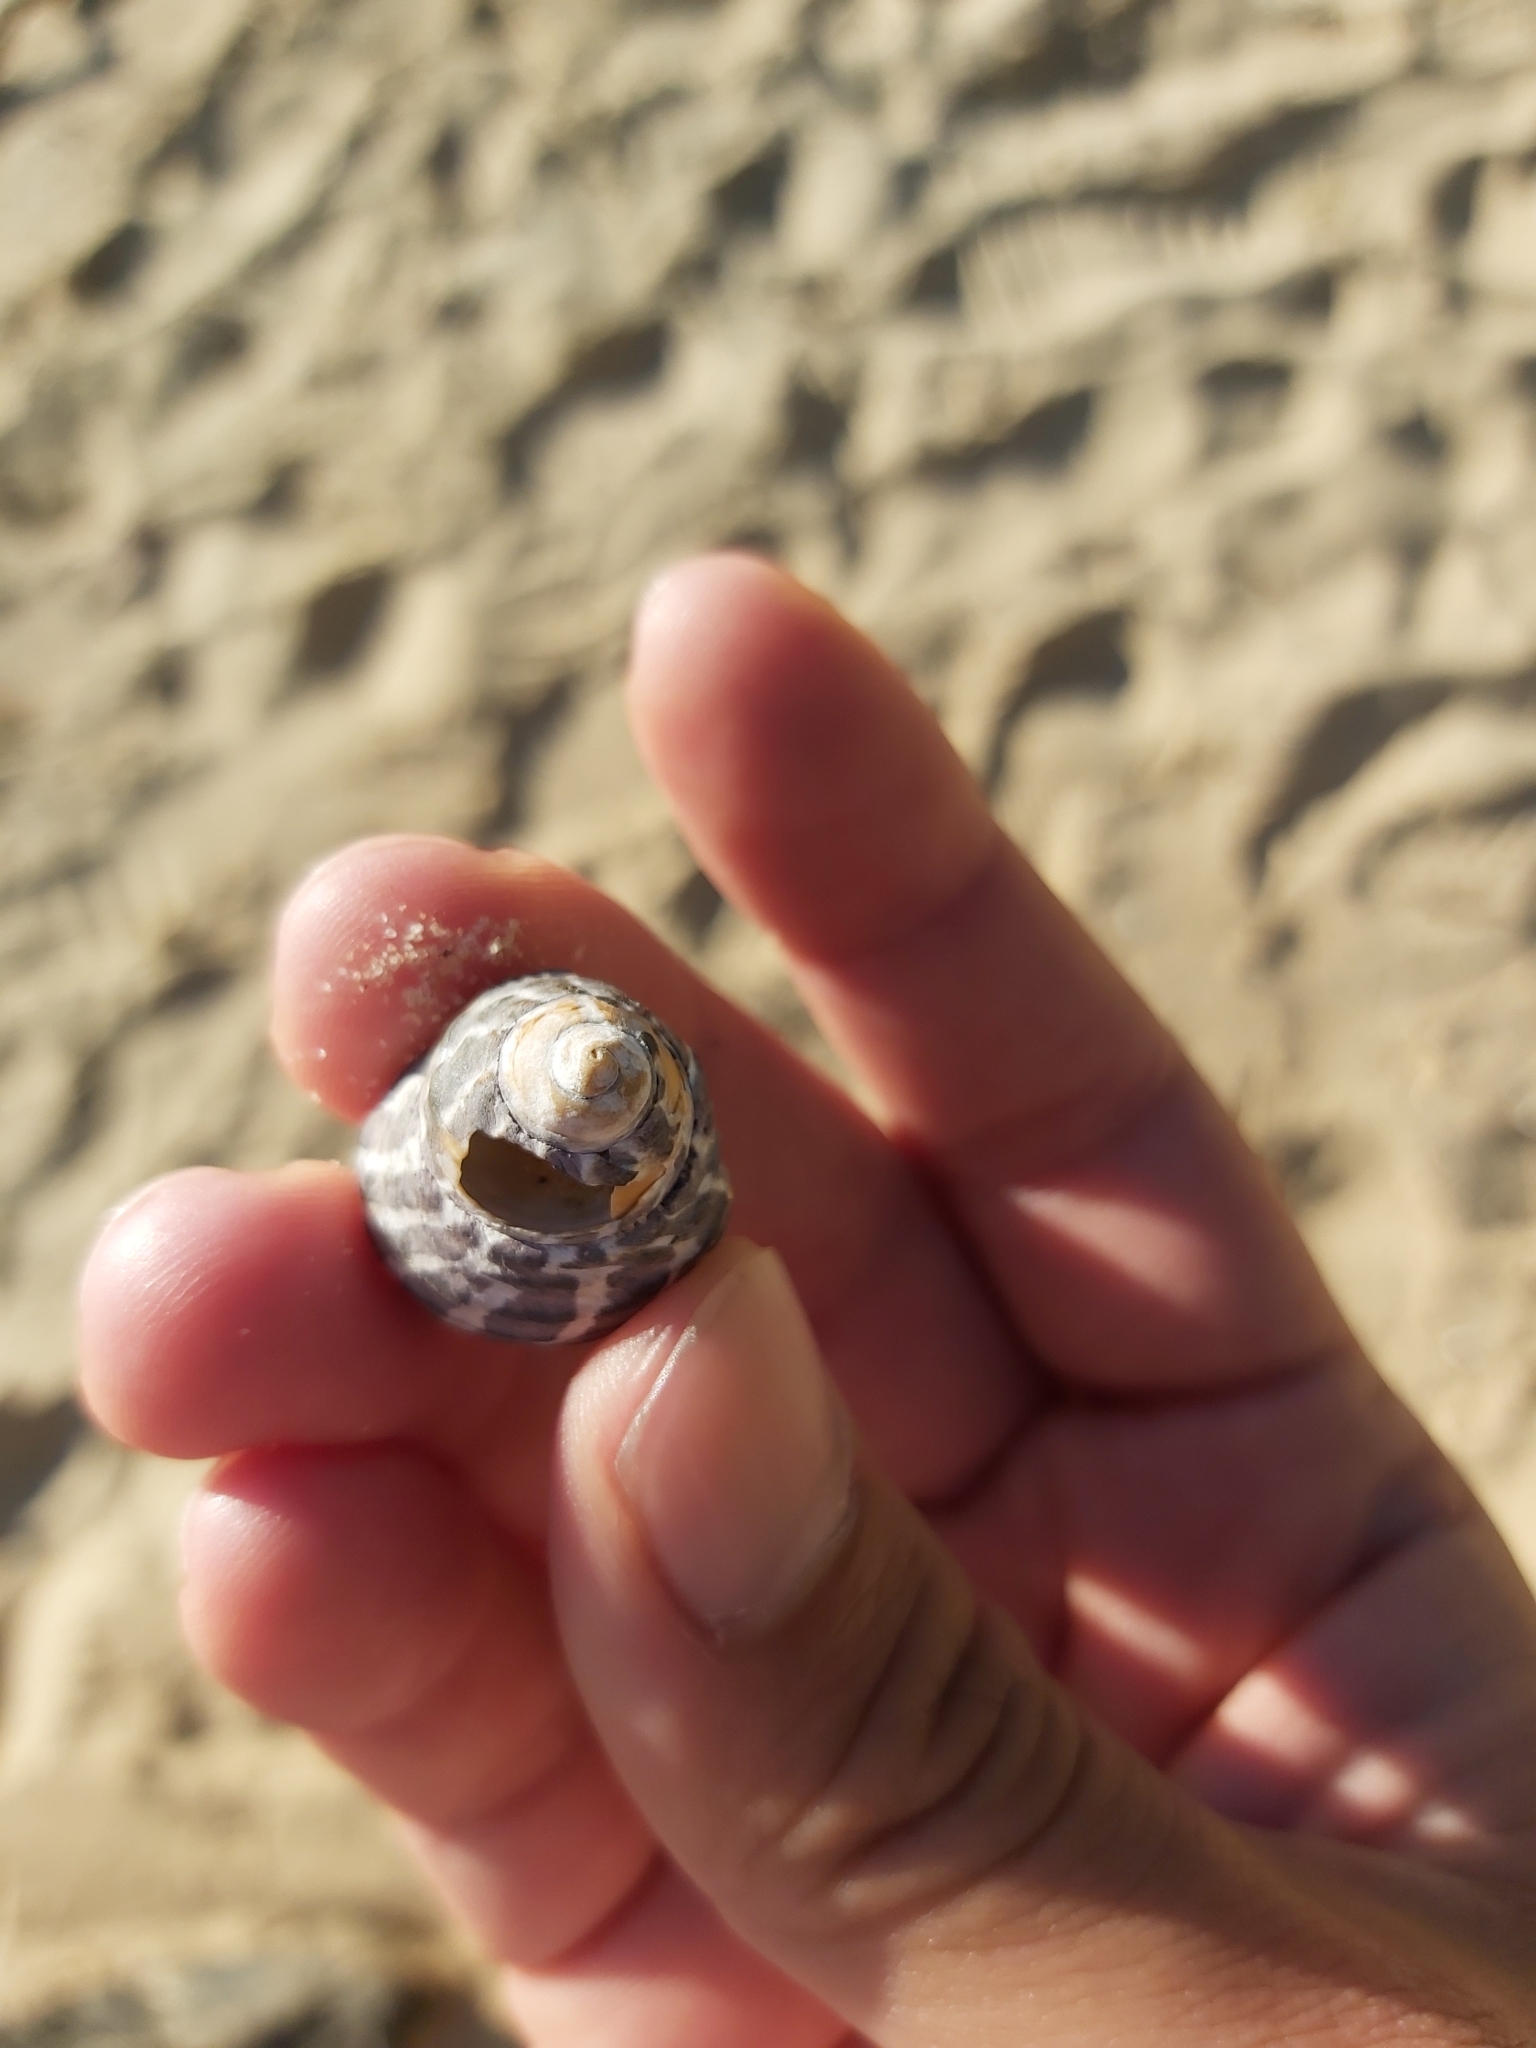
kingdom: Animalia
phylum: Mollusca
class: Gastropoda
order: Trochida
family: Trochidae
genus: Austrocochlea
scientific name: Austrocochlea porcata
